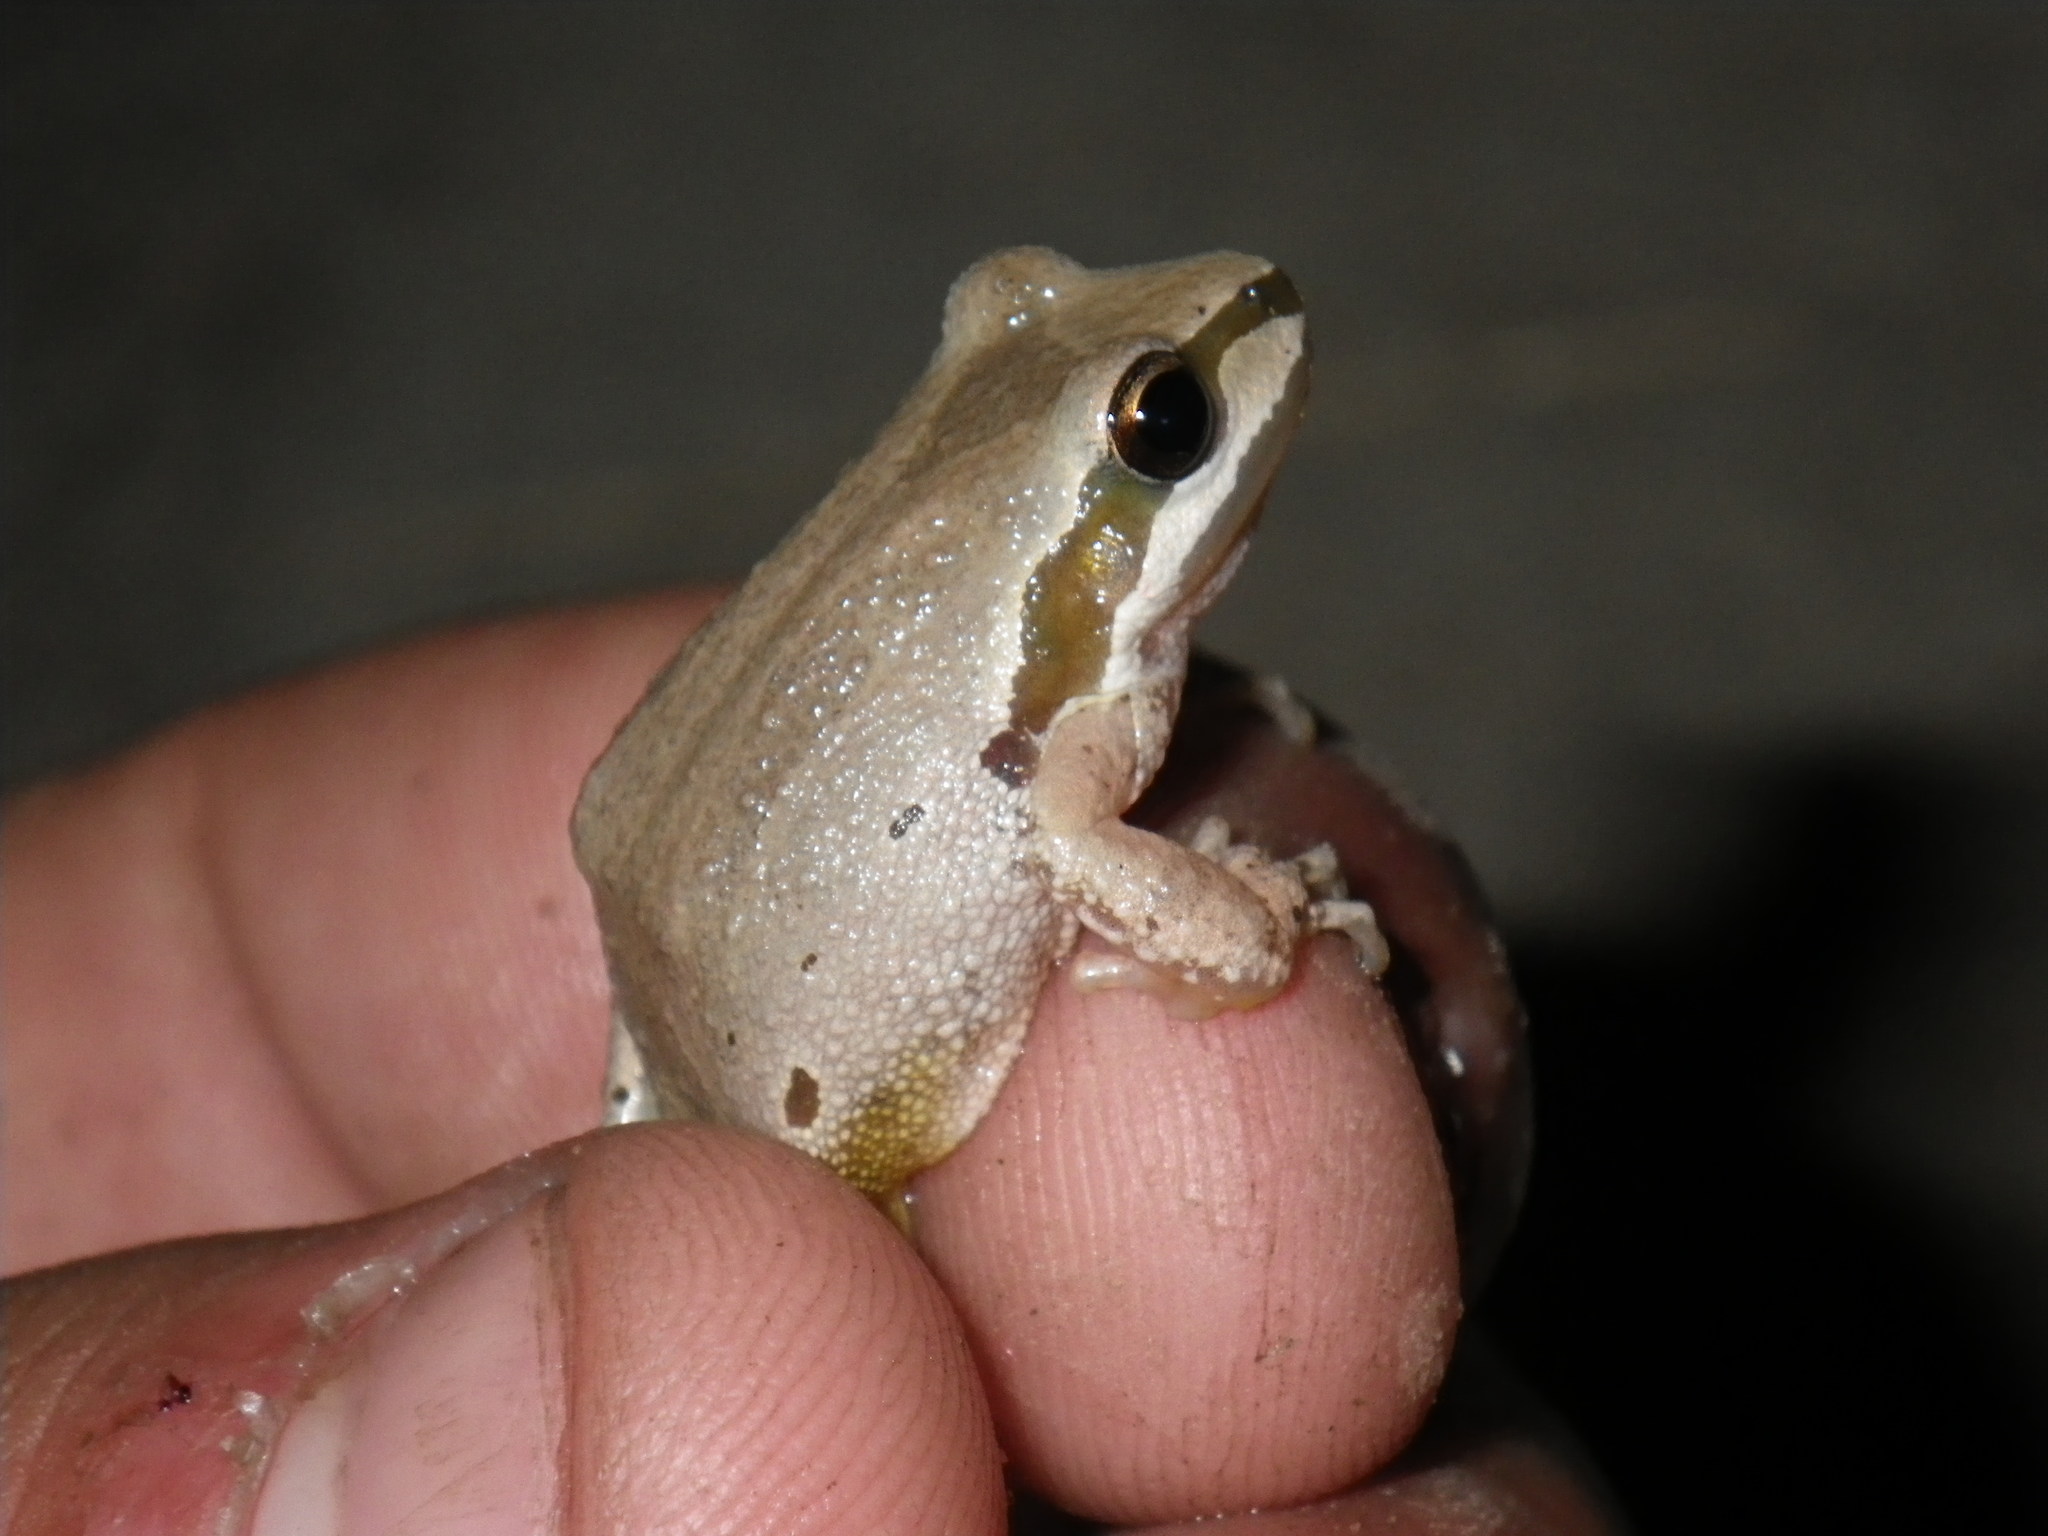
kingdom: Animalia
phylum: Chordata
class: Amphibia
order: Anura
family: Hylidae
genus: Pseudacris
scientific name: Pseudacris regilla
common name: Pacific chorus frog
